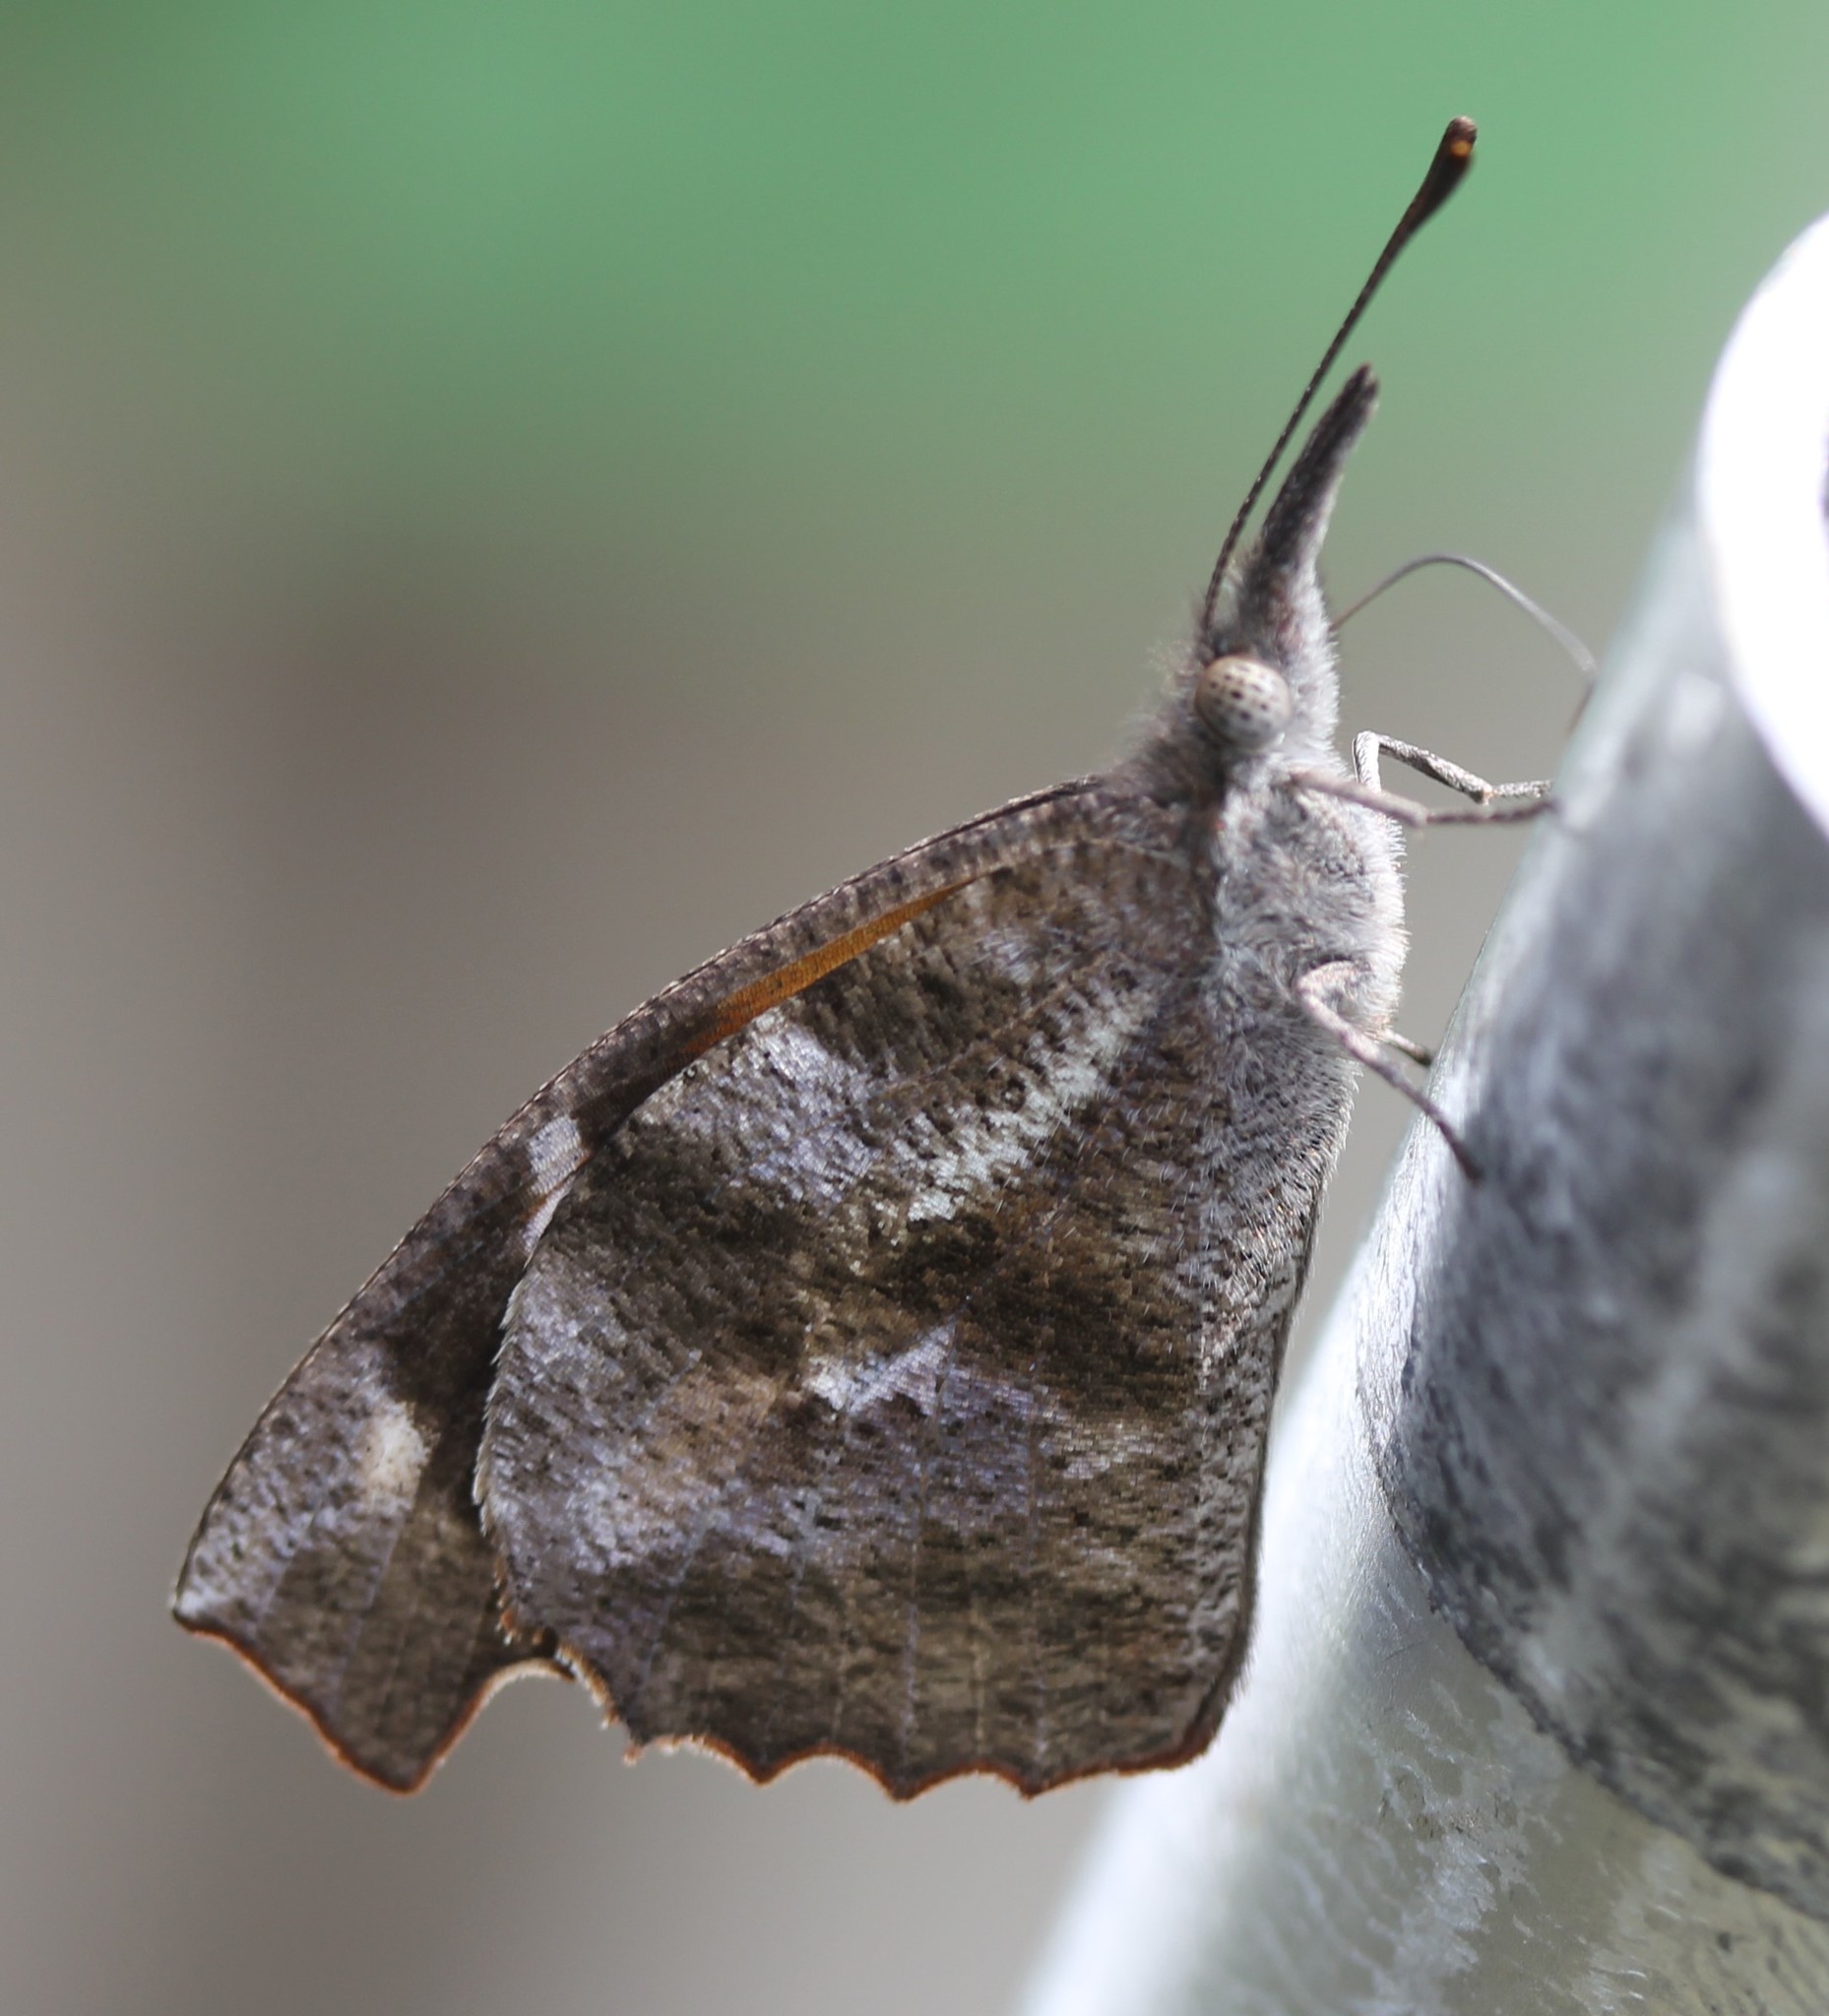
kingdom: Animalia
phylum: Arthropoda
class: Insecta
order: Lepidoptera
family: Nymphalidae
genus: Libytheana
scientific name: Libytheana carinenta
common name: American snout
